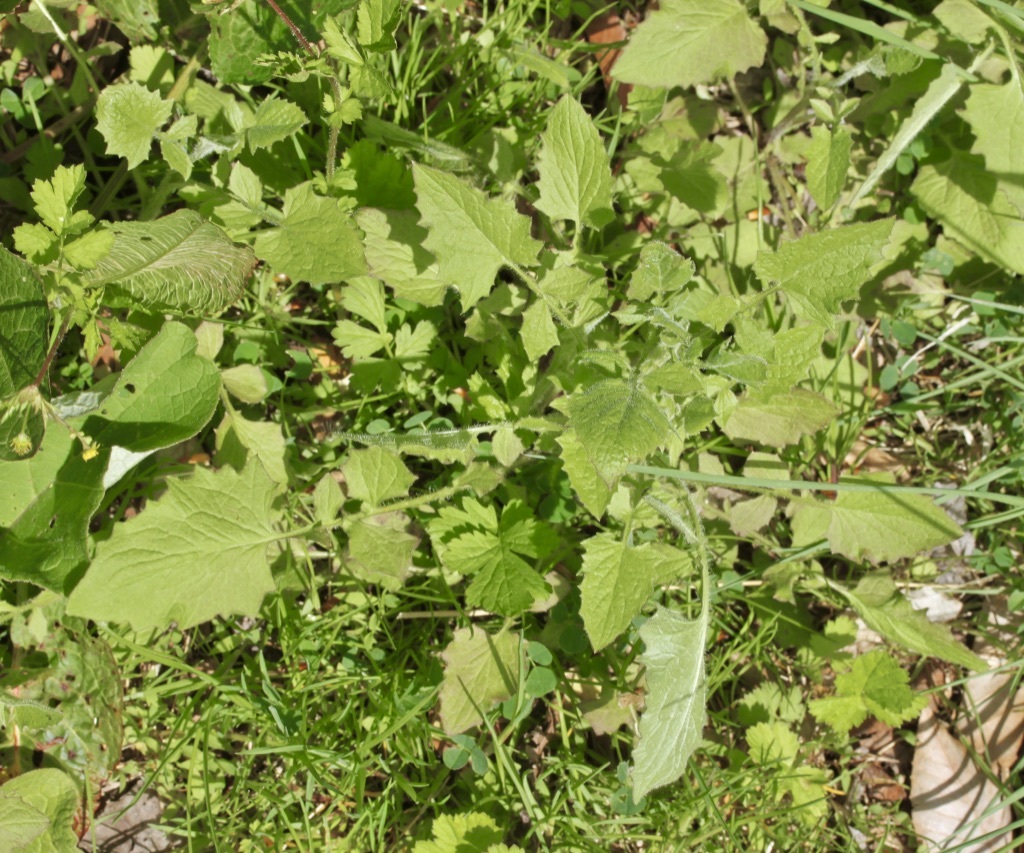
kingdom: Plantae
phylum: Tracheophyta
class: Magnoliopsida
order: Asterales
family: Asteraceae
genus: Lapsana
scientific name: Lapsana communis
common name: Nipplewort
